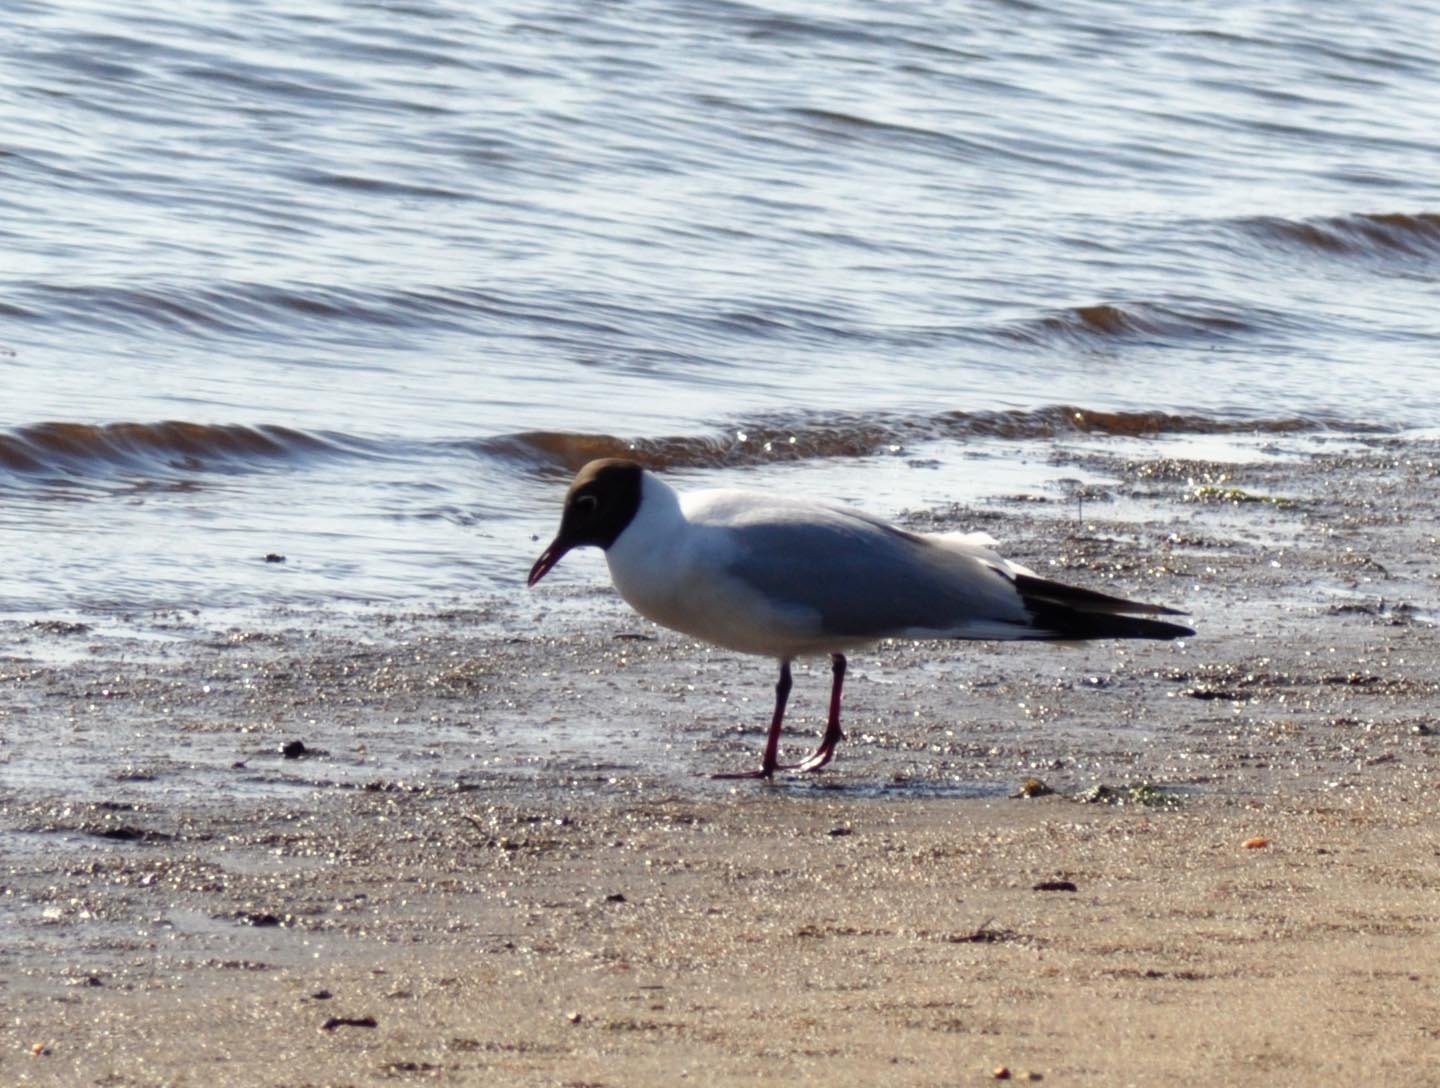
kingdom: Animalia
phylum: Chordata
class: Aves
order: Charadriiformes
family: Laridae
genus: Chroicocephalus
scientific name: Chroicocephalus ridibundus
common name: Black-headed gull
